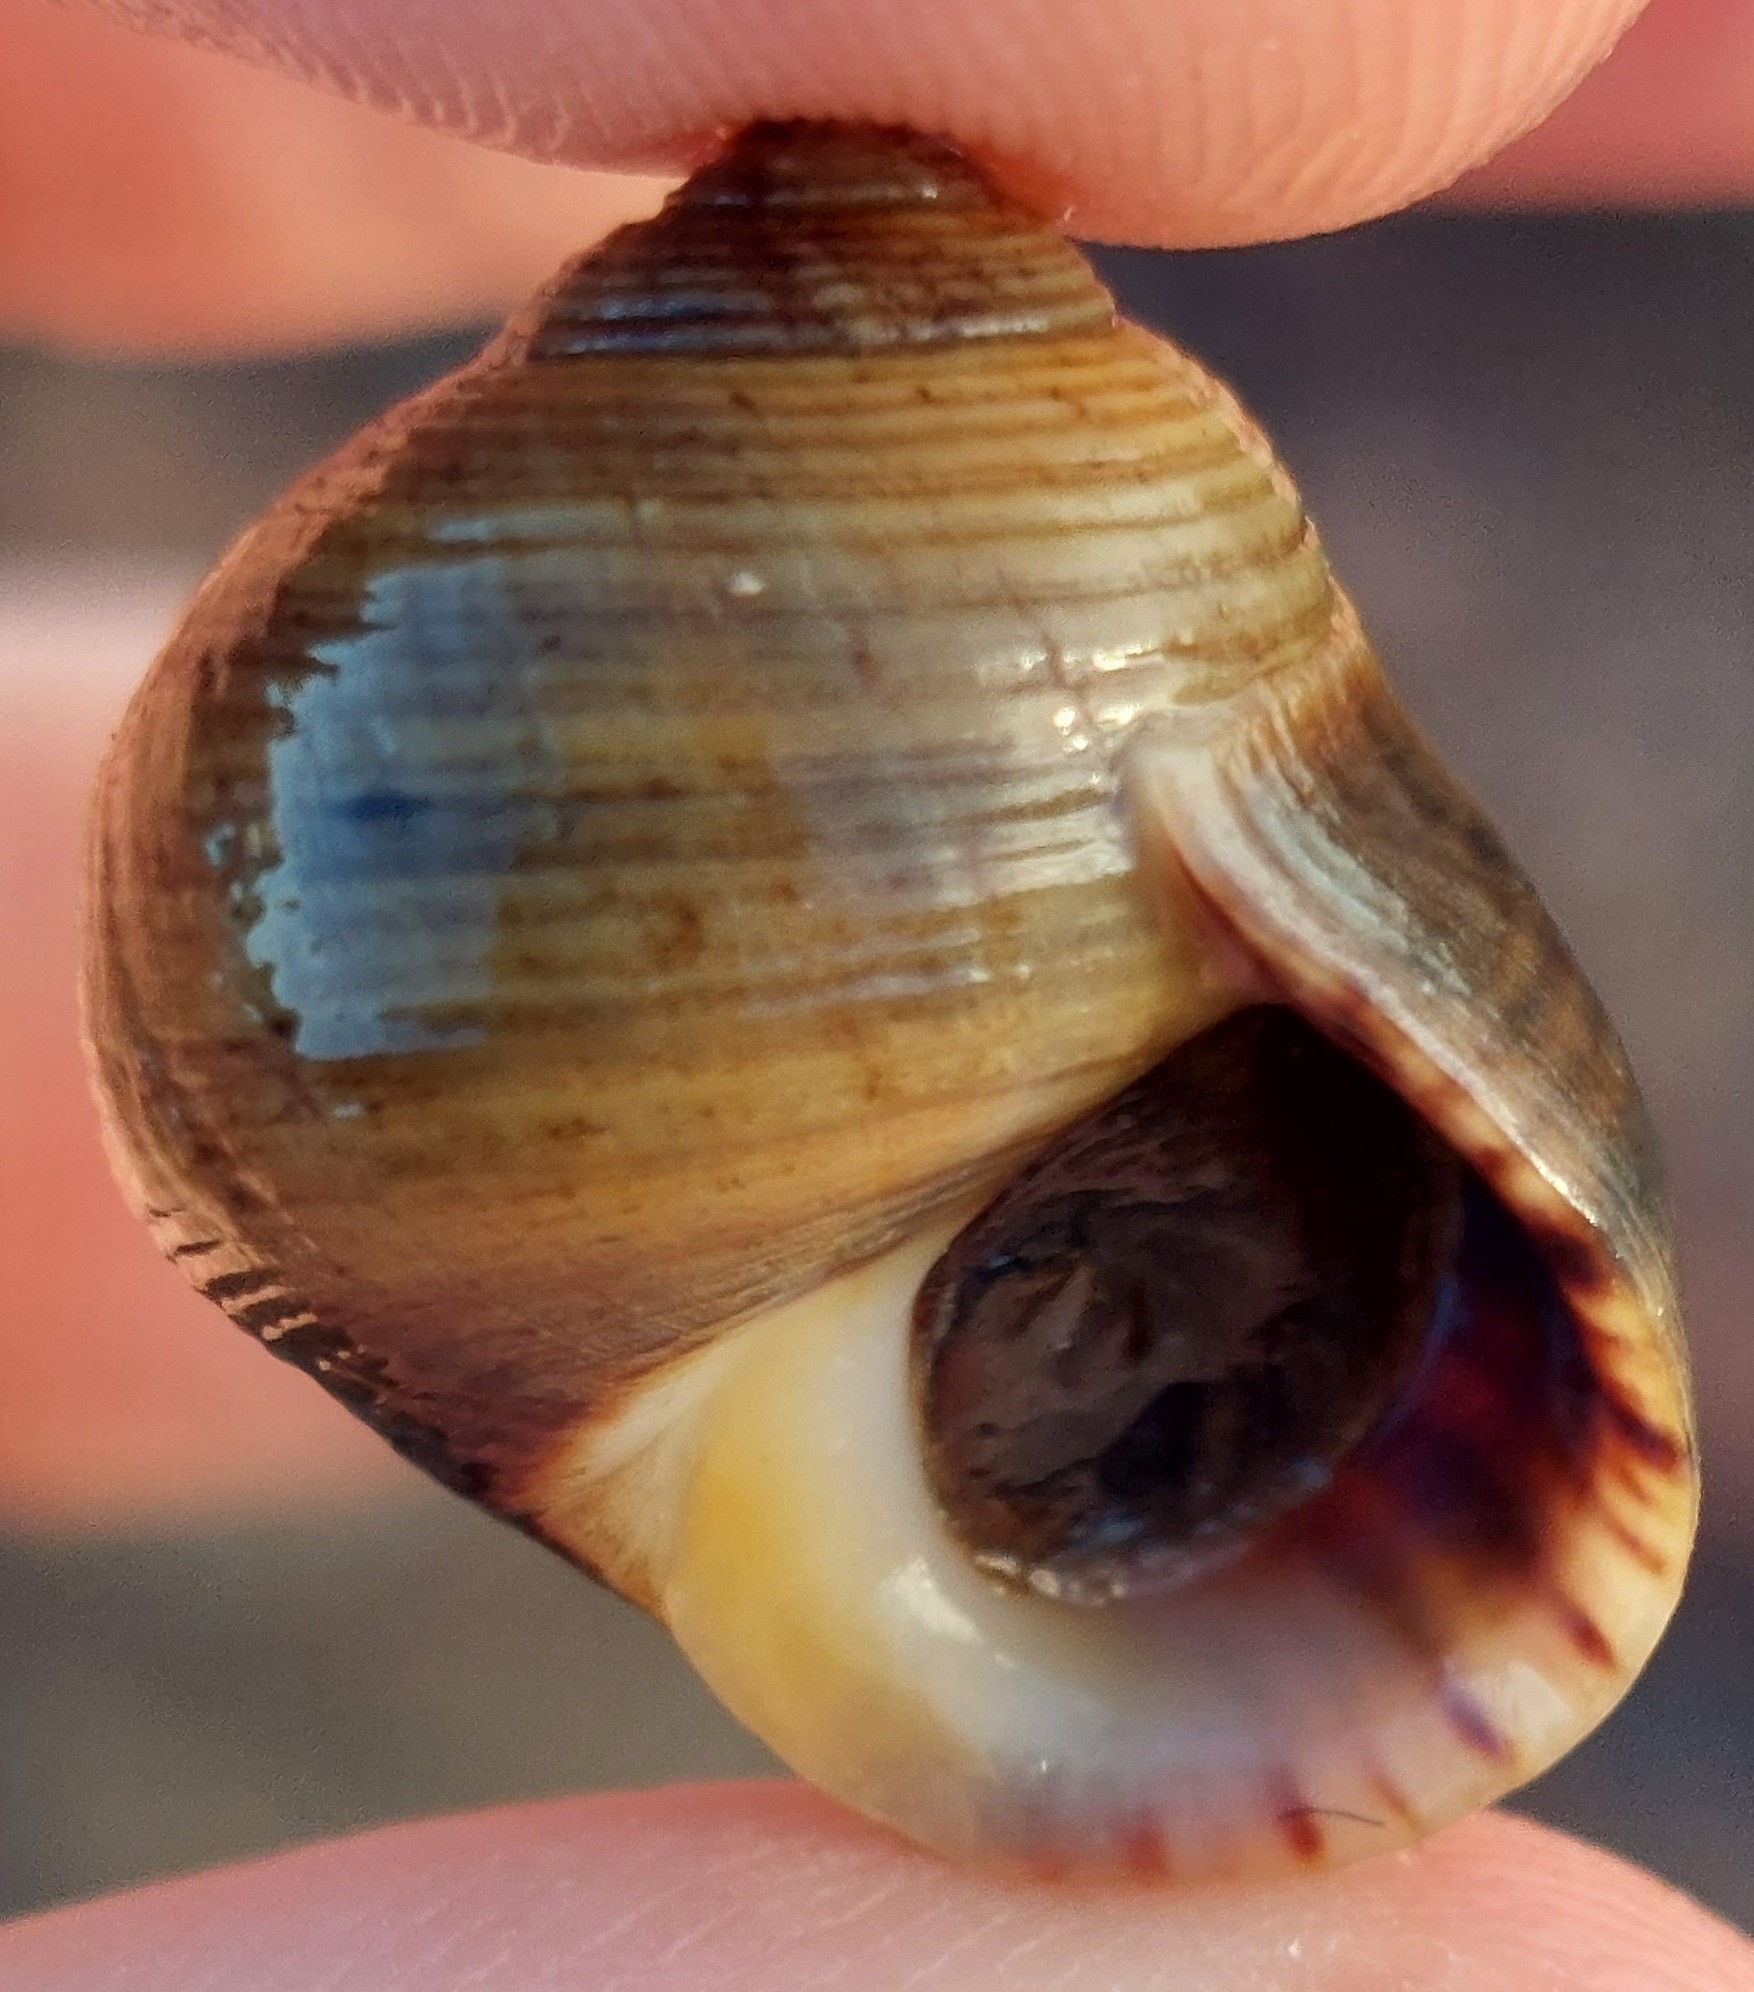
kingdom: Animalia
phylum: Mollusca
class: Gastropoda
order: Littorinimorpha
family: Littorinidae
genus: Littorina
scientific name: Littorina littorea
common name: Common periwinkle
